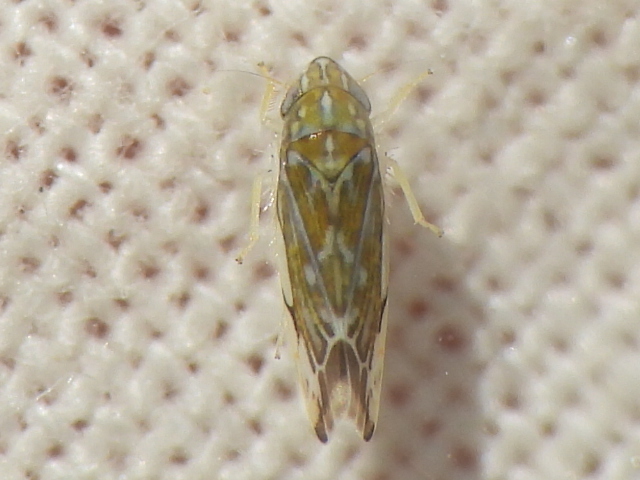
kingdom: Animalia
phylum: Arthropoda
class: Insecta
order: Hemiptera
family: Cicadellidae
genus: Erasmoneura
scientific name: Erasmoneura vulnerata
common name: The wounded leafhopper
